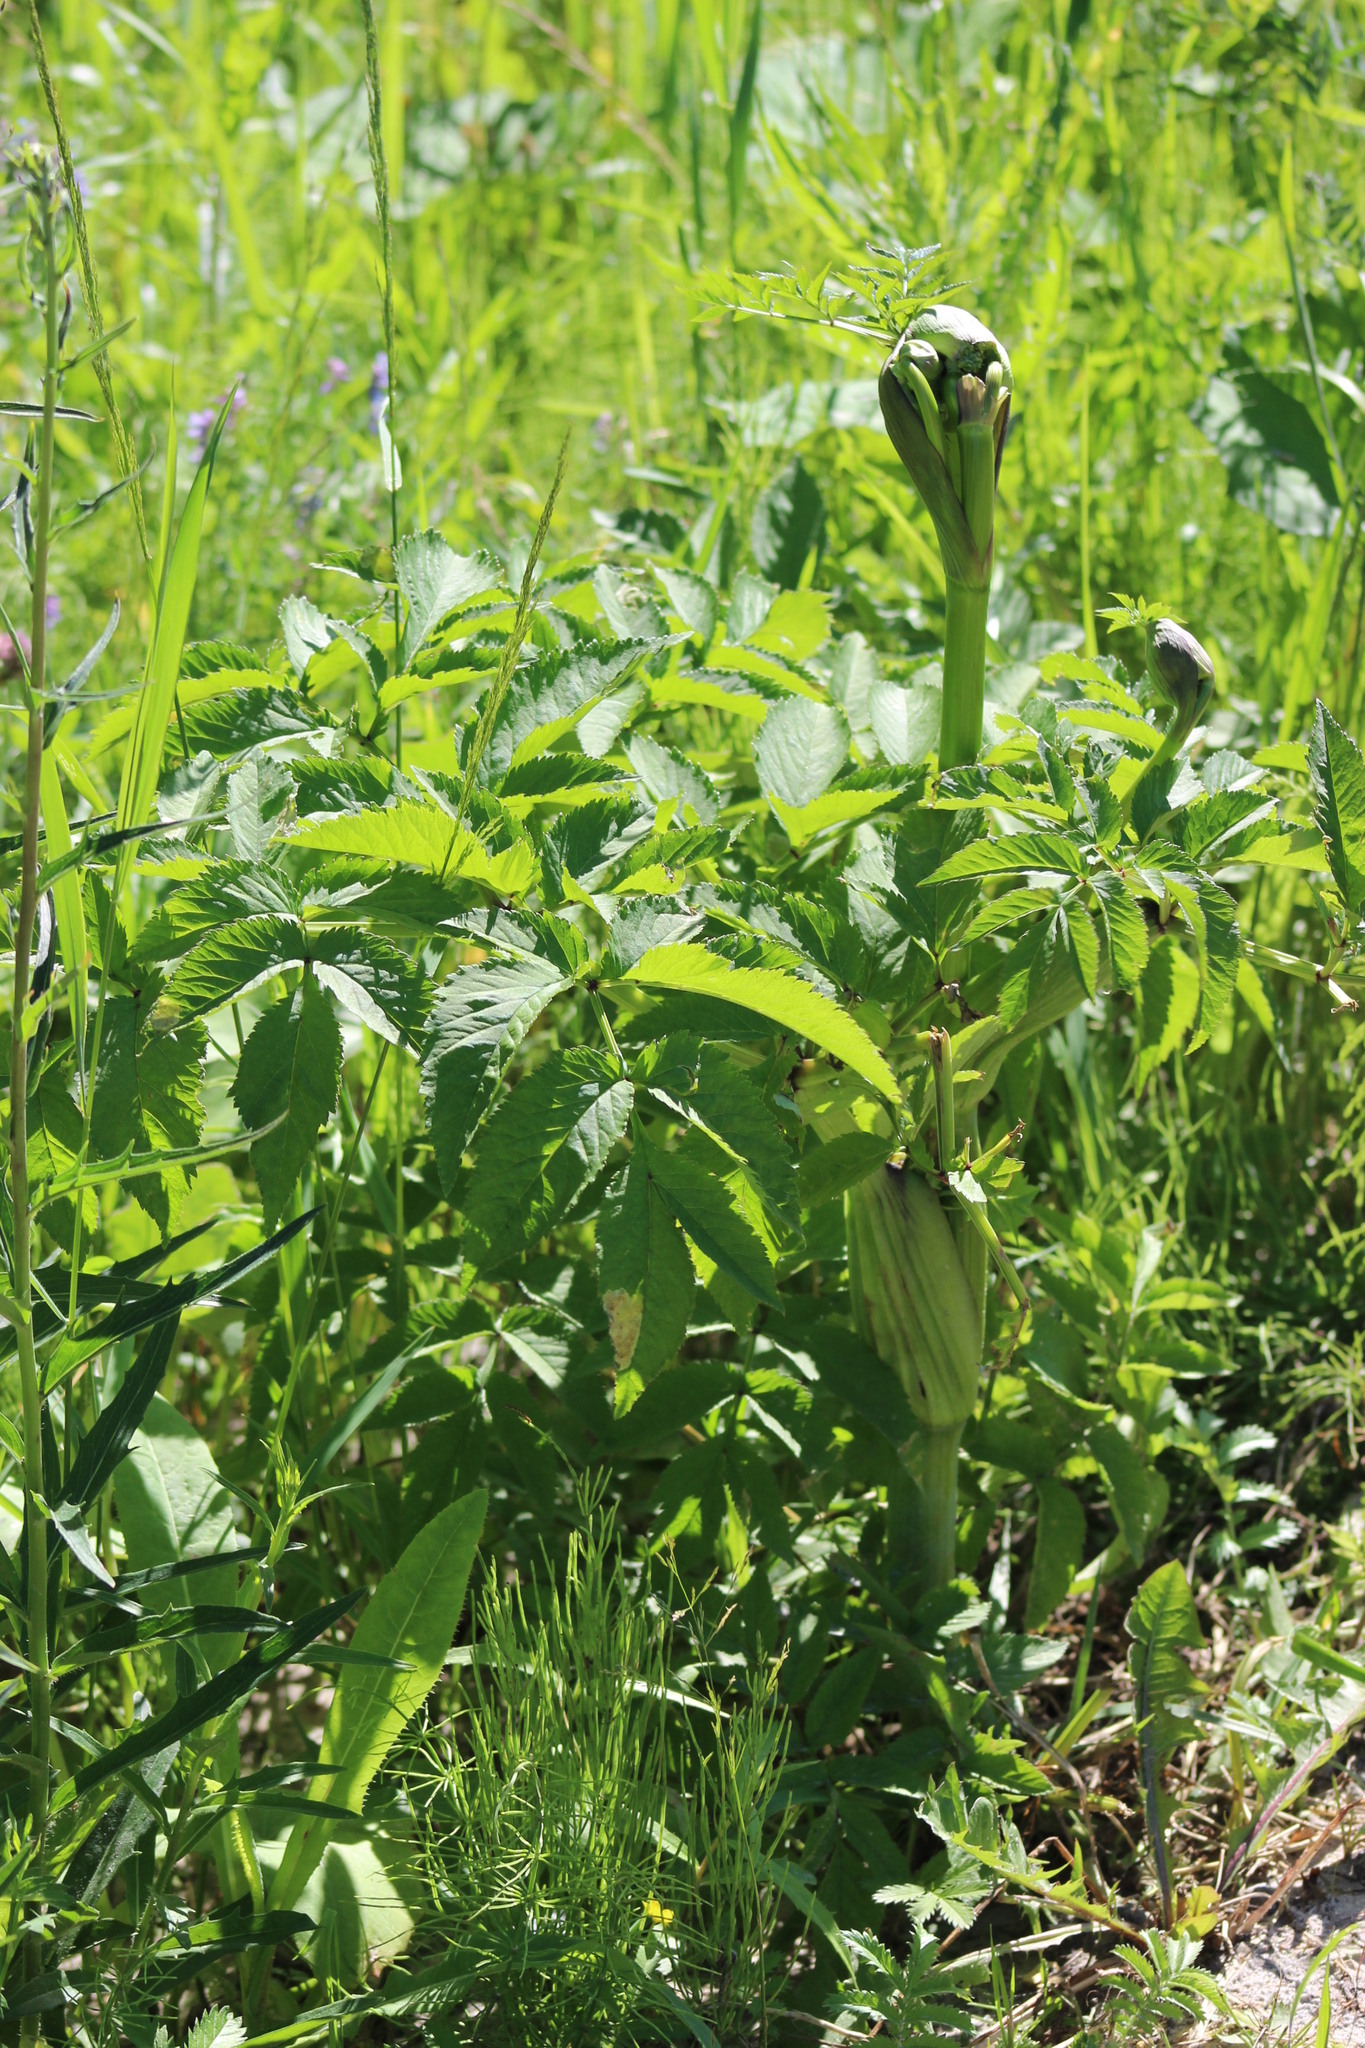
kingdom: Plantae
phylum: Tracheophyta
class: Magnoliopsida
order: Apiales
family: Apiaceae
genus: Angelica
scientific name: Angelica sylvestris
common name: Wild angelica
